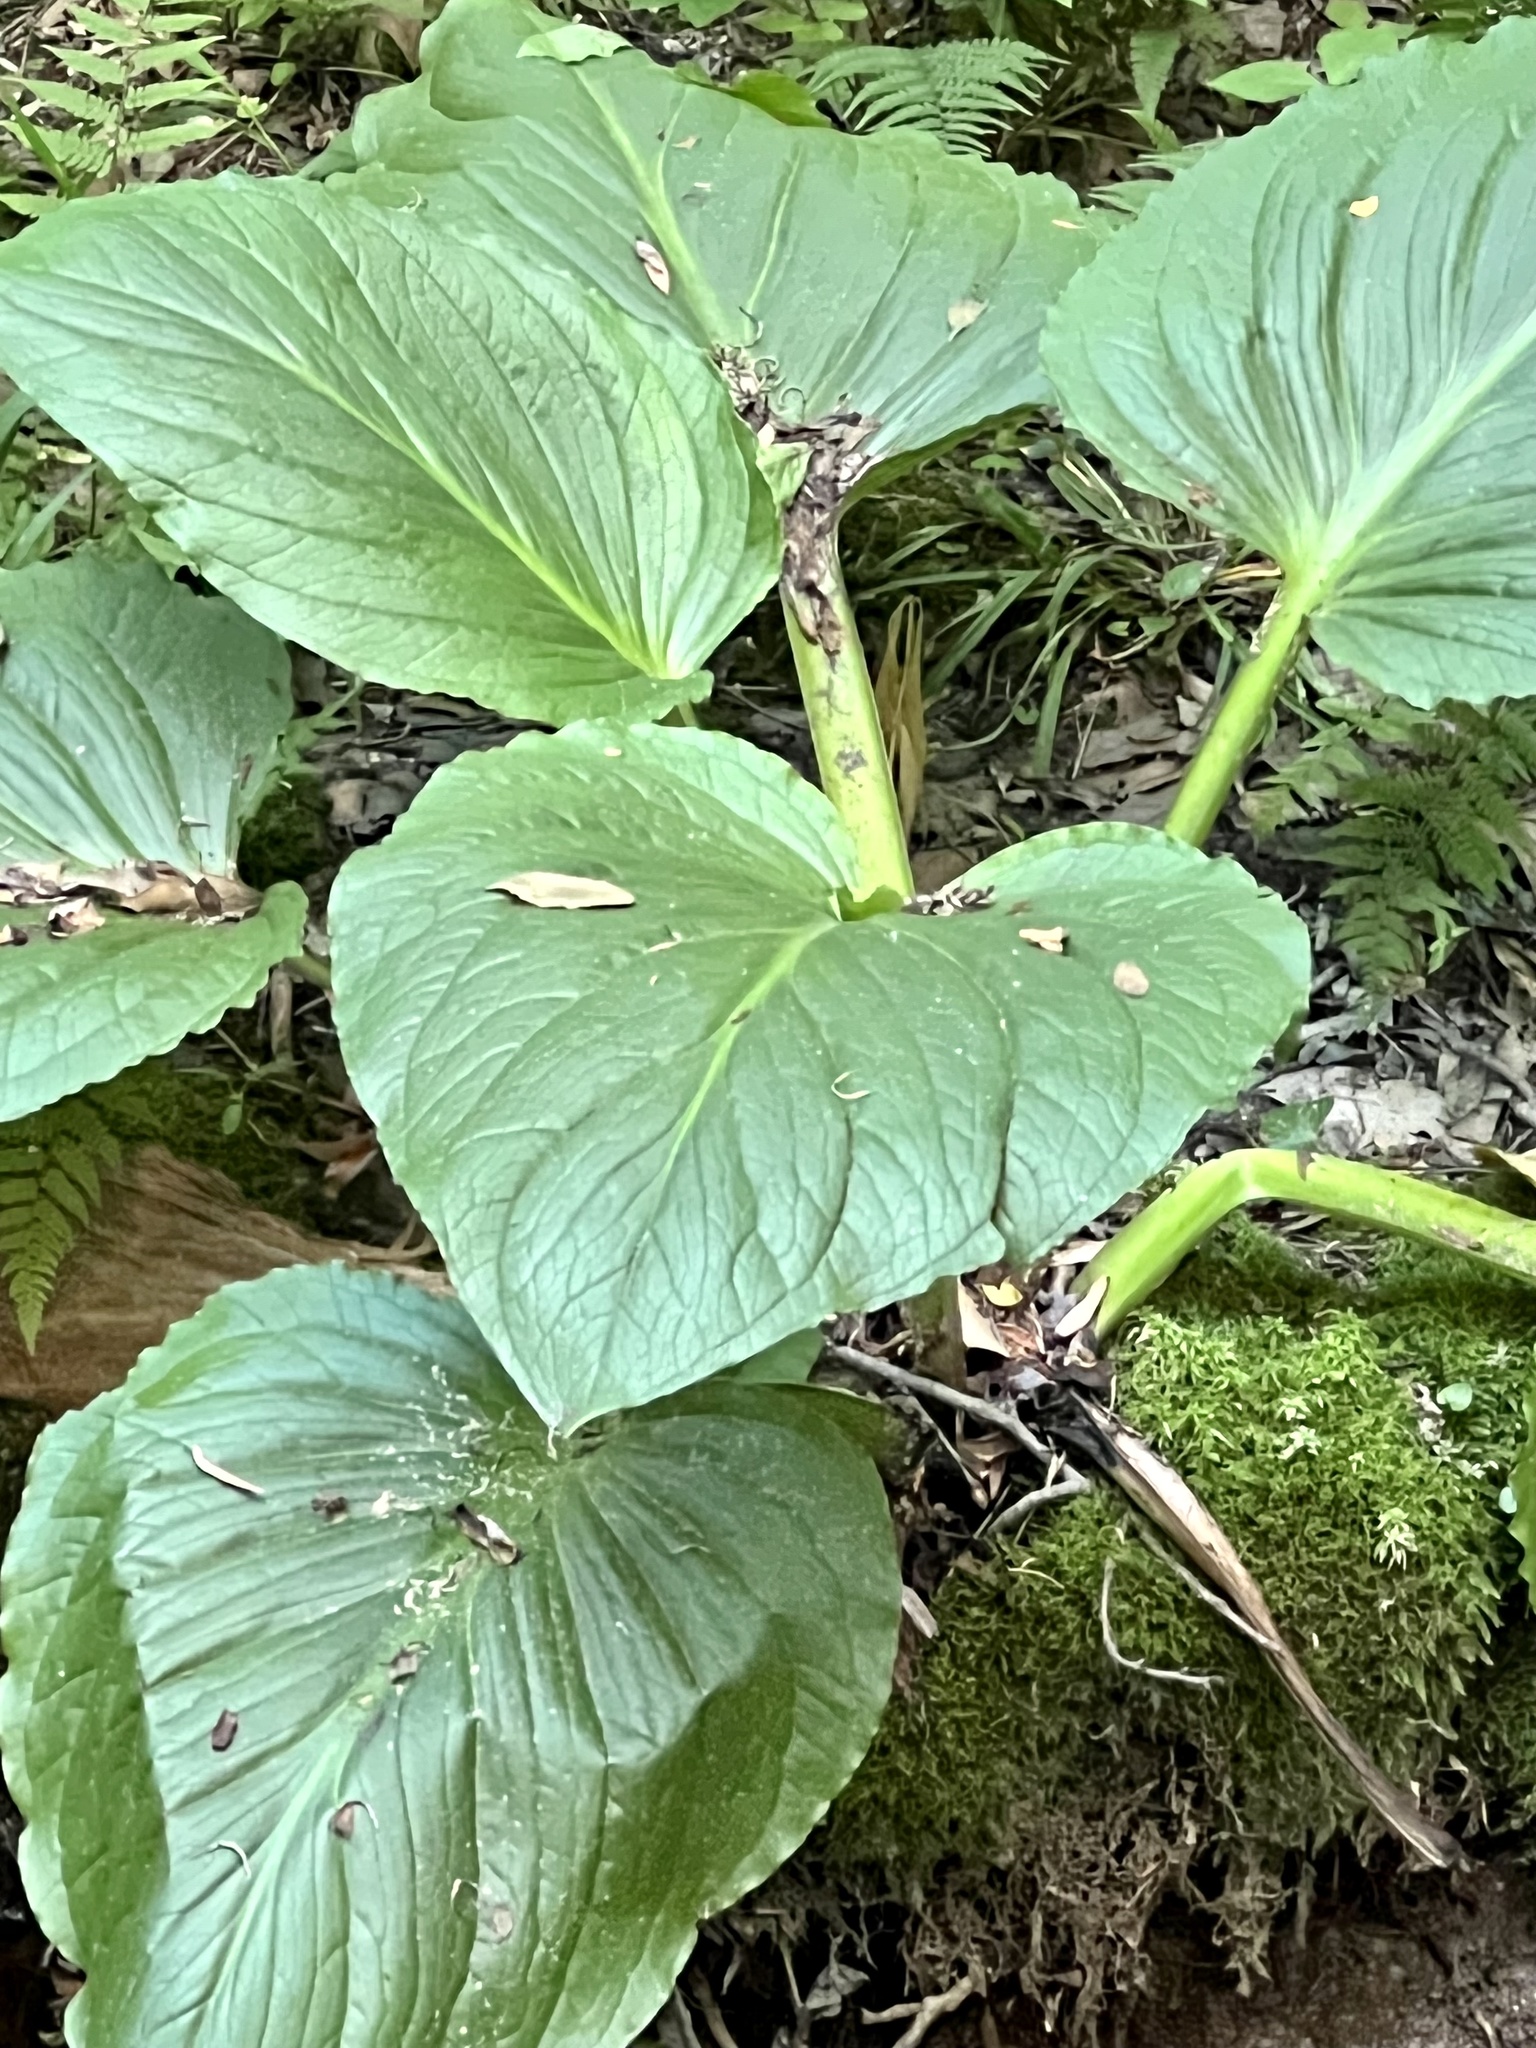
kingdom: Plantae
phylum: Tracheophyta
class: Liliopsida
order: Alismatales
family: Araceae
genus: Symplocarpus
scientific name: Symplocarpus foetidus
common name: Eastern skunk cabbage
